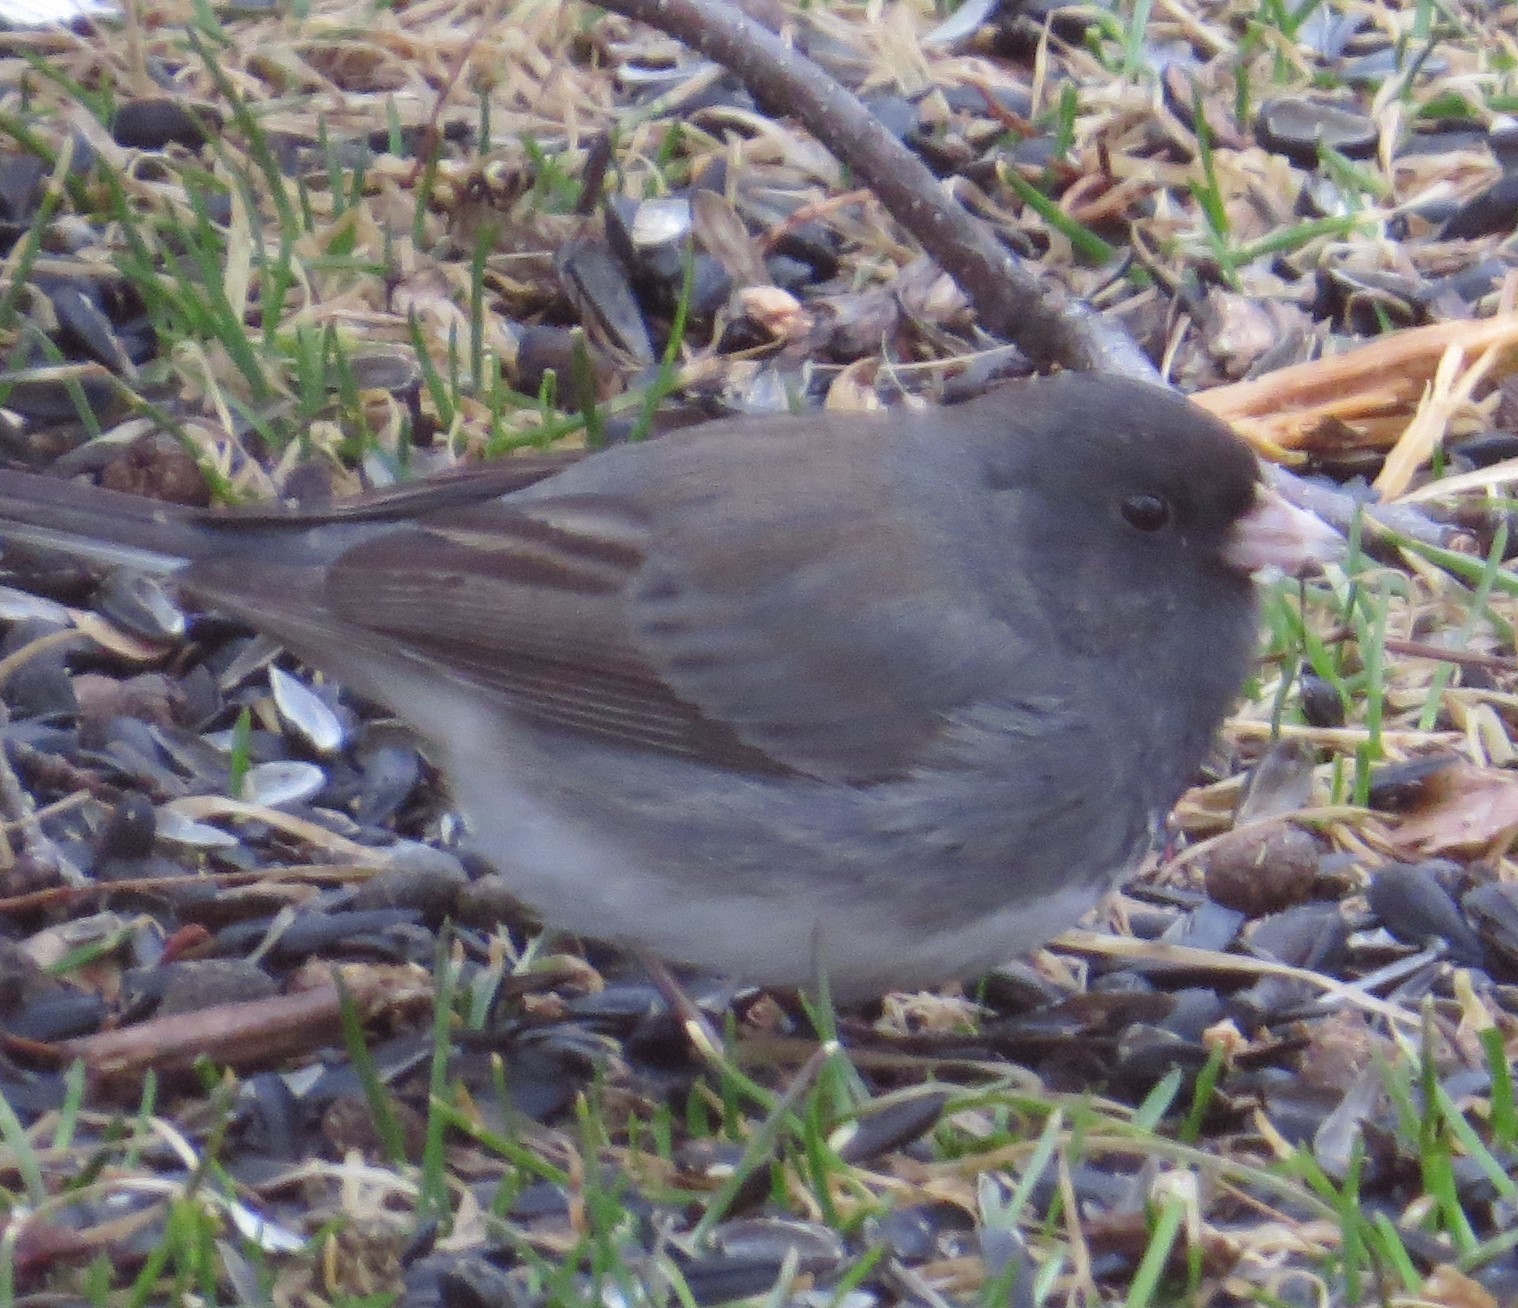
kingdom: Animalia
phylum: Chordata
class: Aves
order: Passeriformes
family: Passerellidae
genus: Junco
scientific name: Junco hyemalis
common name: Dark-eyed junco
